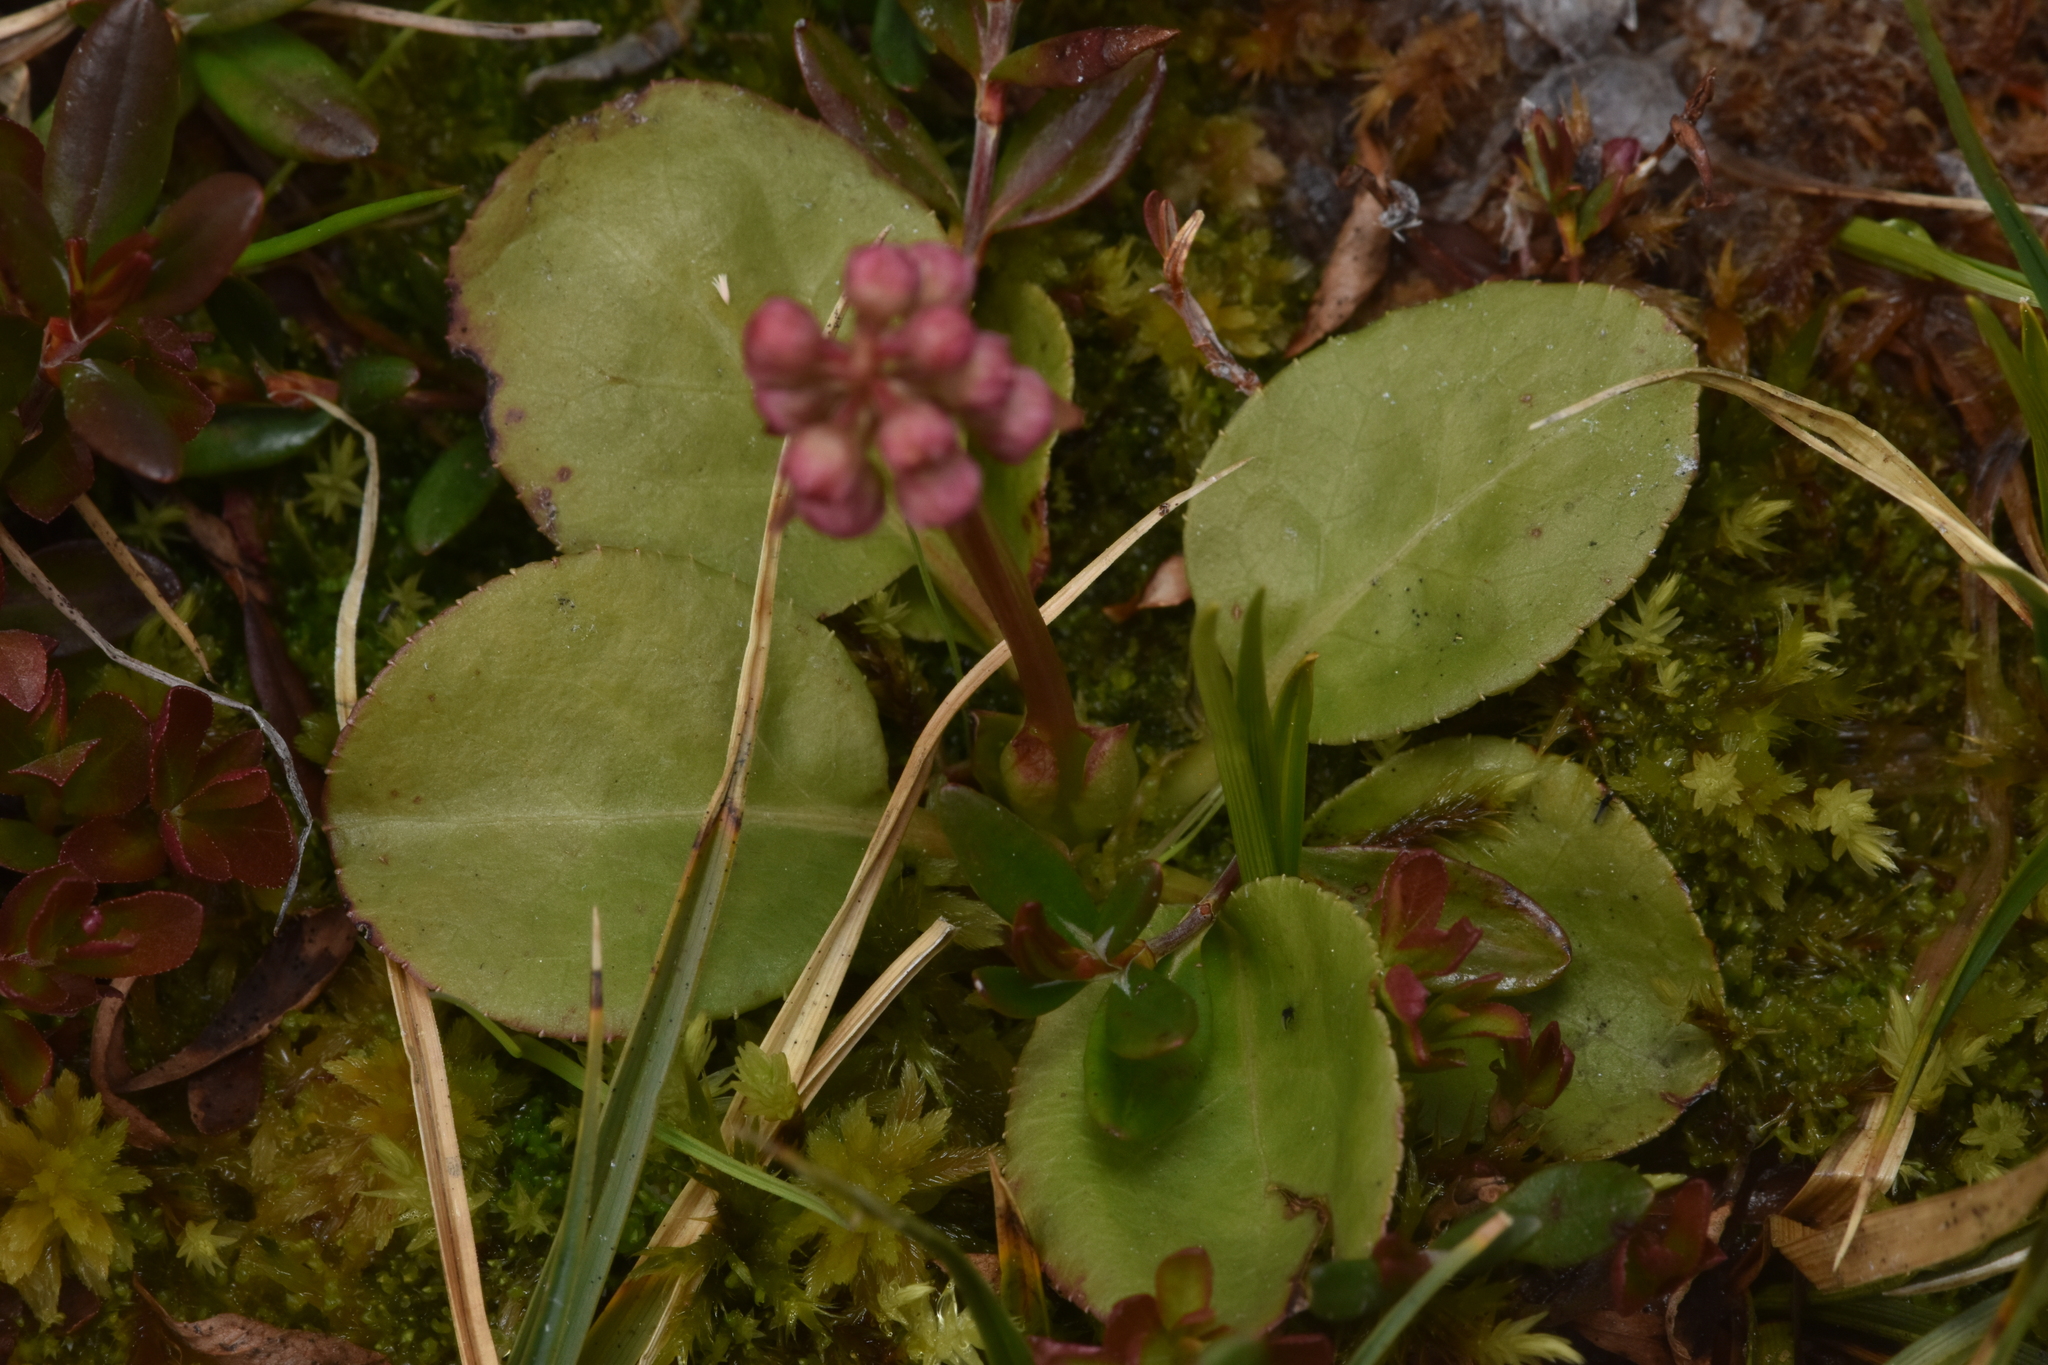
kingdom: Plantae
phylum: Tracheophyta
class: Magnoliopsida
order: Ericales
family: Ericaceae
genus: Pyrola
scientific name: Pyrola asarifolia
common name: Bog wintergreen
